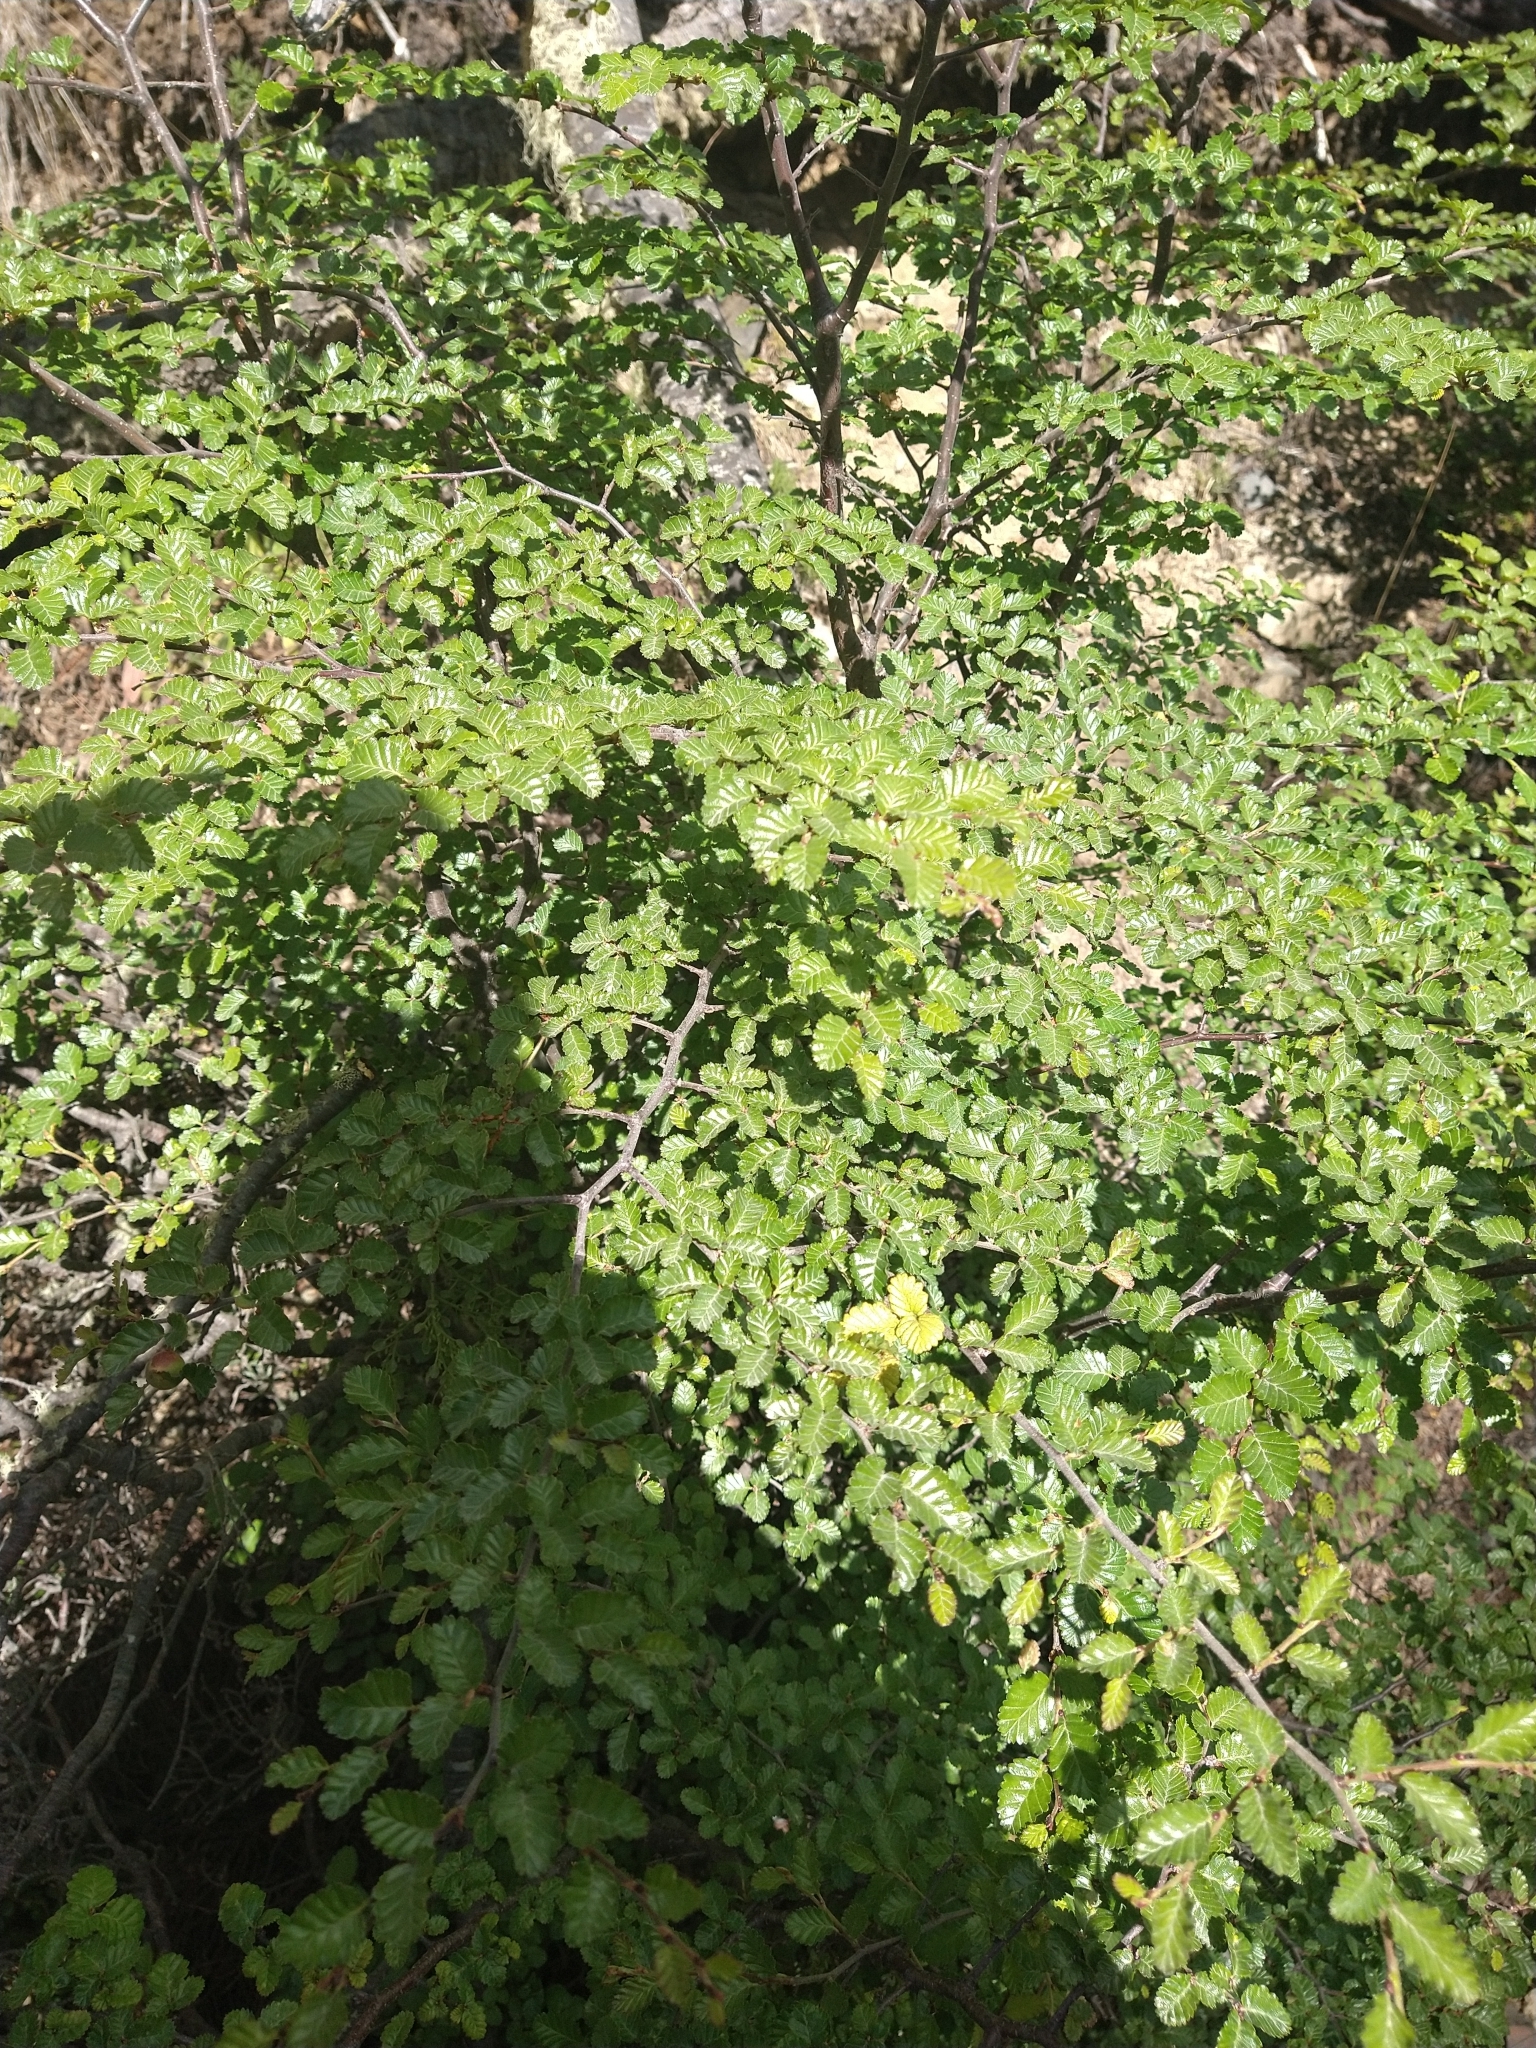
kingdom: Plantae
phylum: Tracheophyta
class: Magnoliopsida
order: Fagales
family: Nothofagaceae
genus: Nothofagus
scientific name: Nothofagus pumilio
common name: Lenga beech
